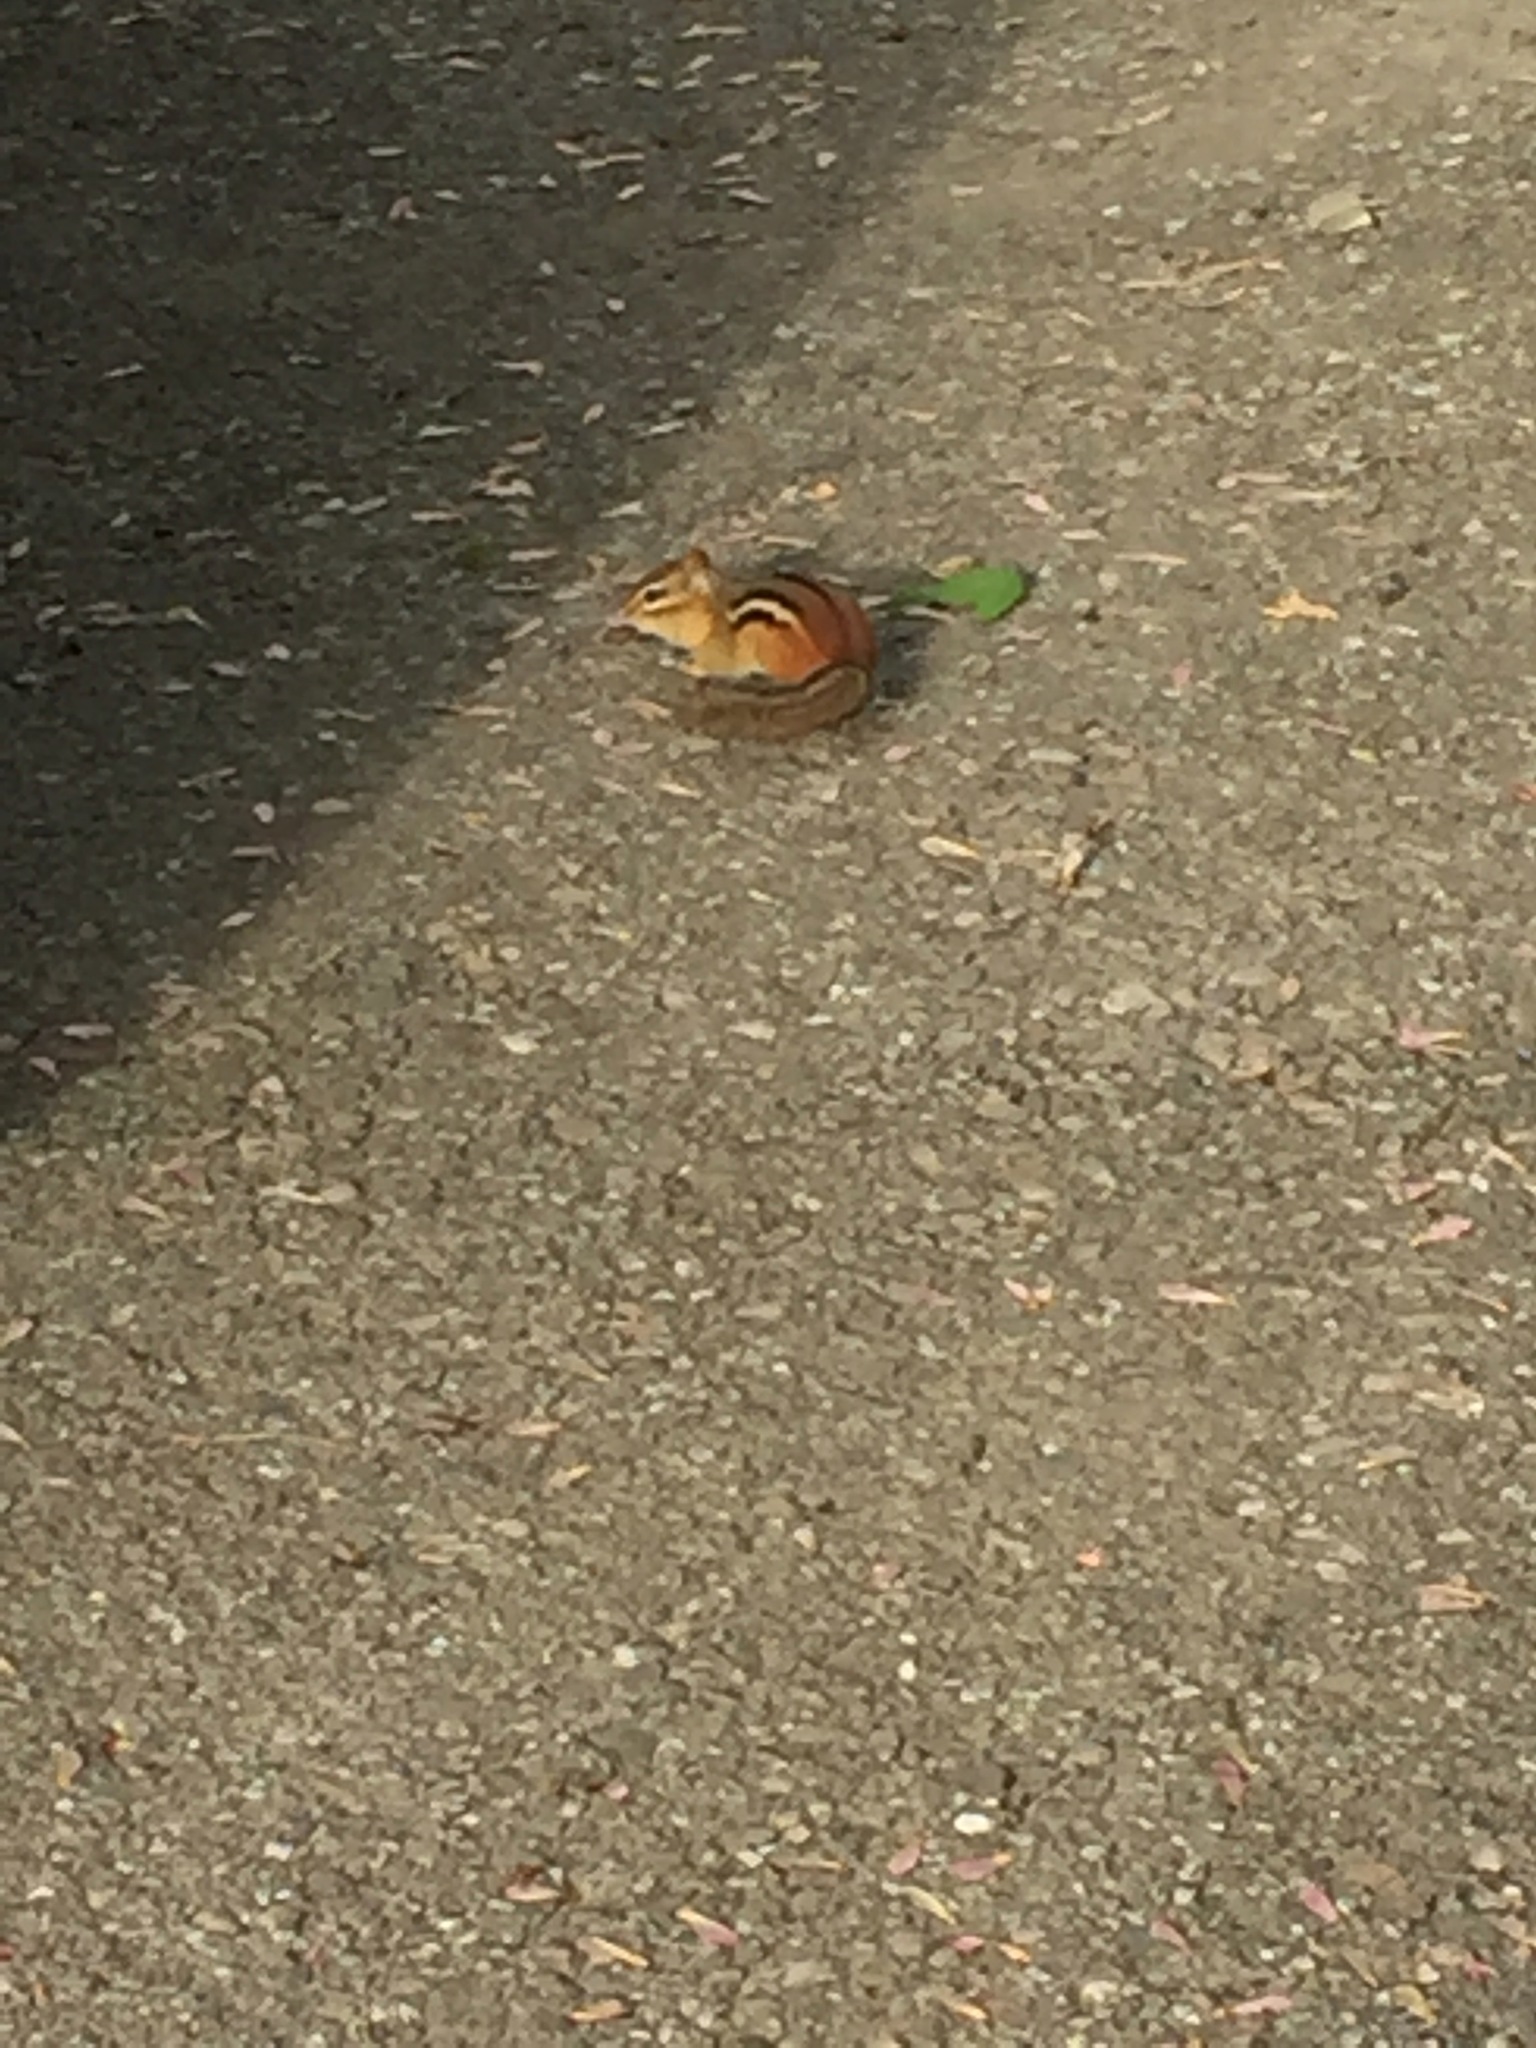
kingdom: Animalia
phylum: Chordata
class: Mammalia
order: Rodentia
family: Sciuridae
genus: Tamias
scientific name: Tamias striatus
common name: Eastern chipmunk
